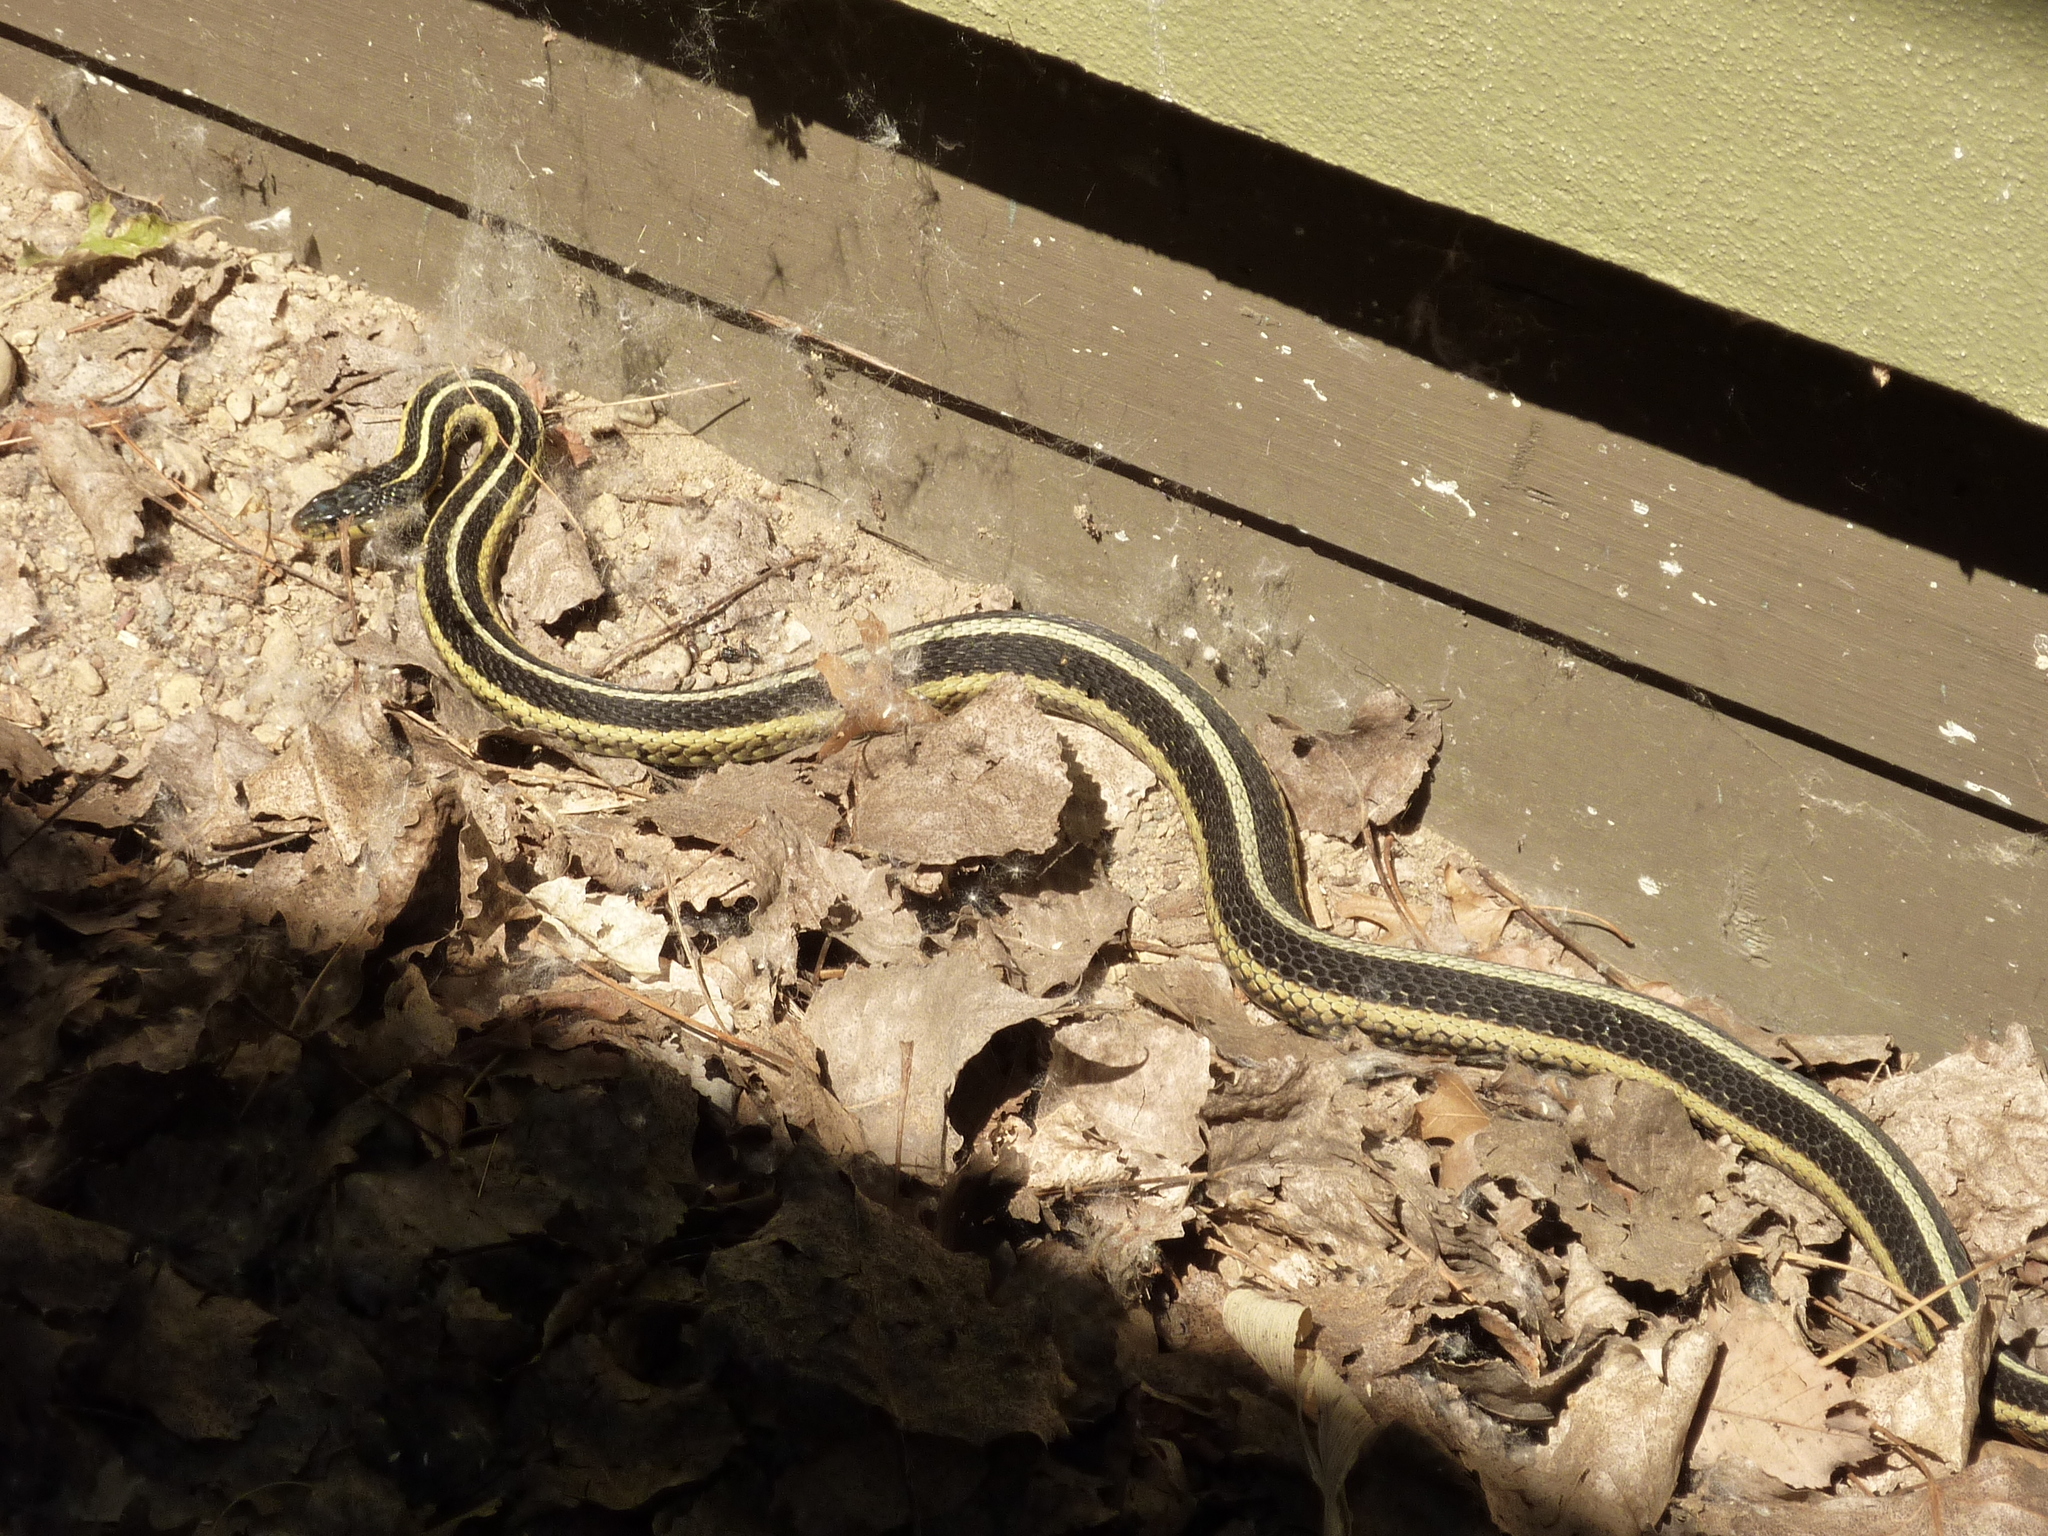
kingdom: Animalia
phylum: Chordata
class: Squamata
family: Colubridae
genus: Thamnophis
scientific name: Thamnophis sirtalis
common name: Common garter snake
